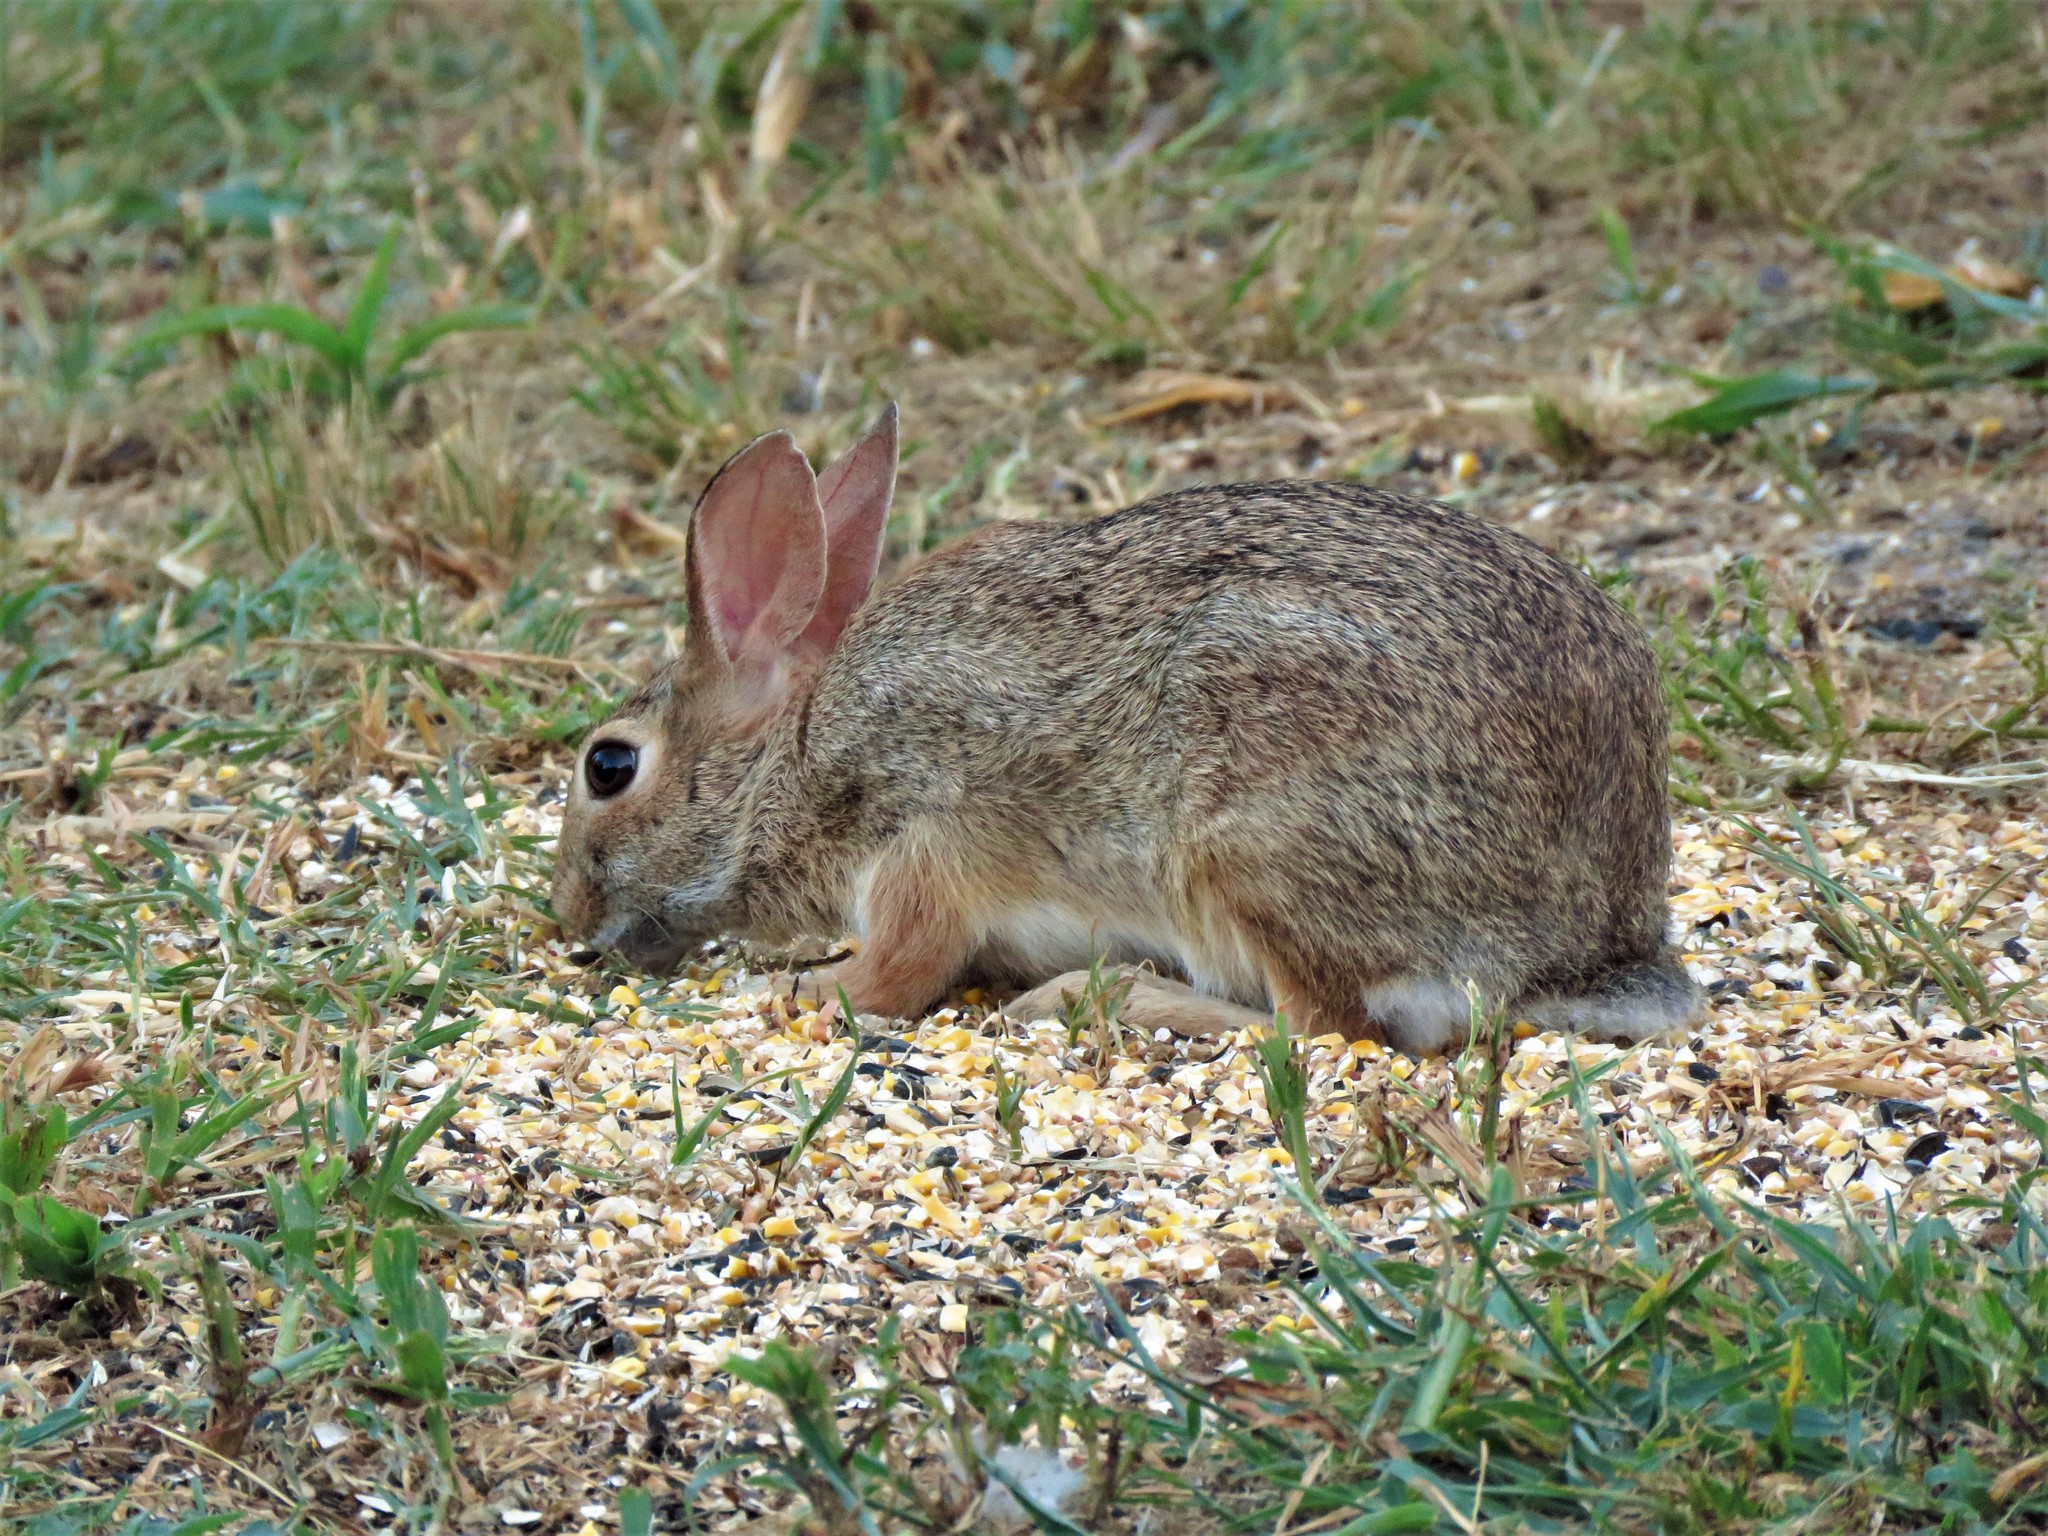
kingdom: Animalia
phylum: Chordata
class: Mammalia
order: Lagomorpha
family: Leporidae
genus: Sylvilagus
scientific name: Sylvilagus floridanus
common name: Eastern cottontail
